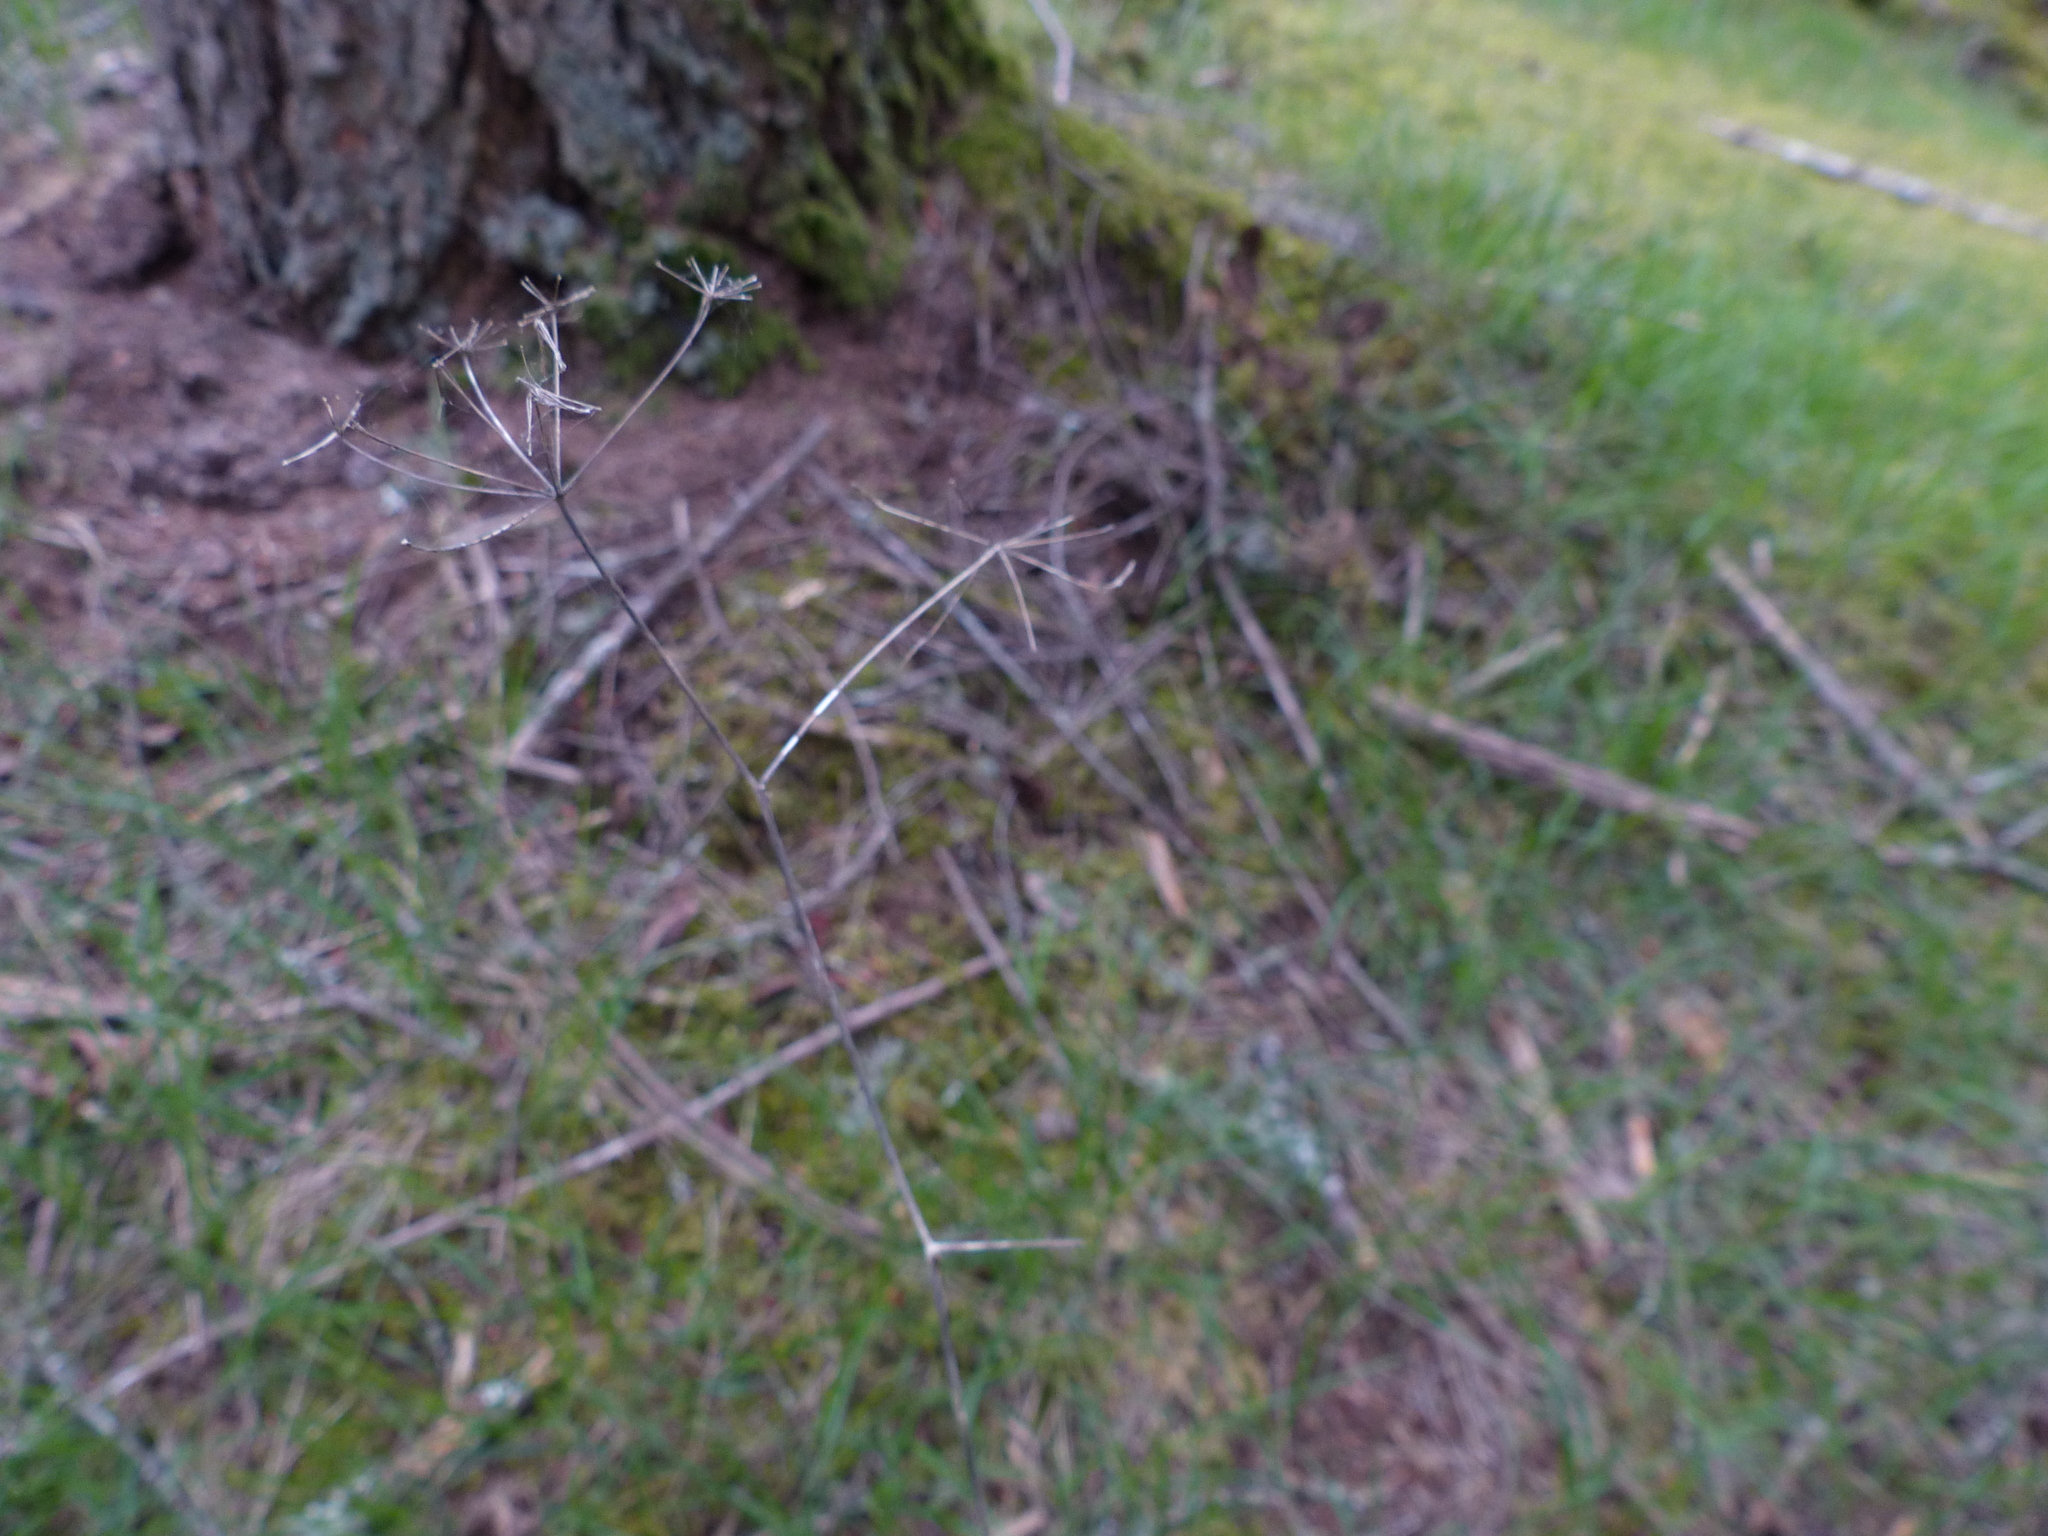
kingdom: Plantae
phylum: Tracheophyta
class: Magnoliopsida
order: Apiales
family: Apiaceae
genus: Perideridia
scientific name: Perideridia gairdneri
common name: False caraway
